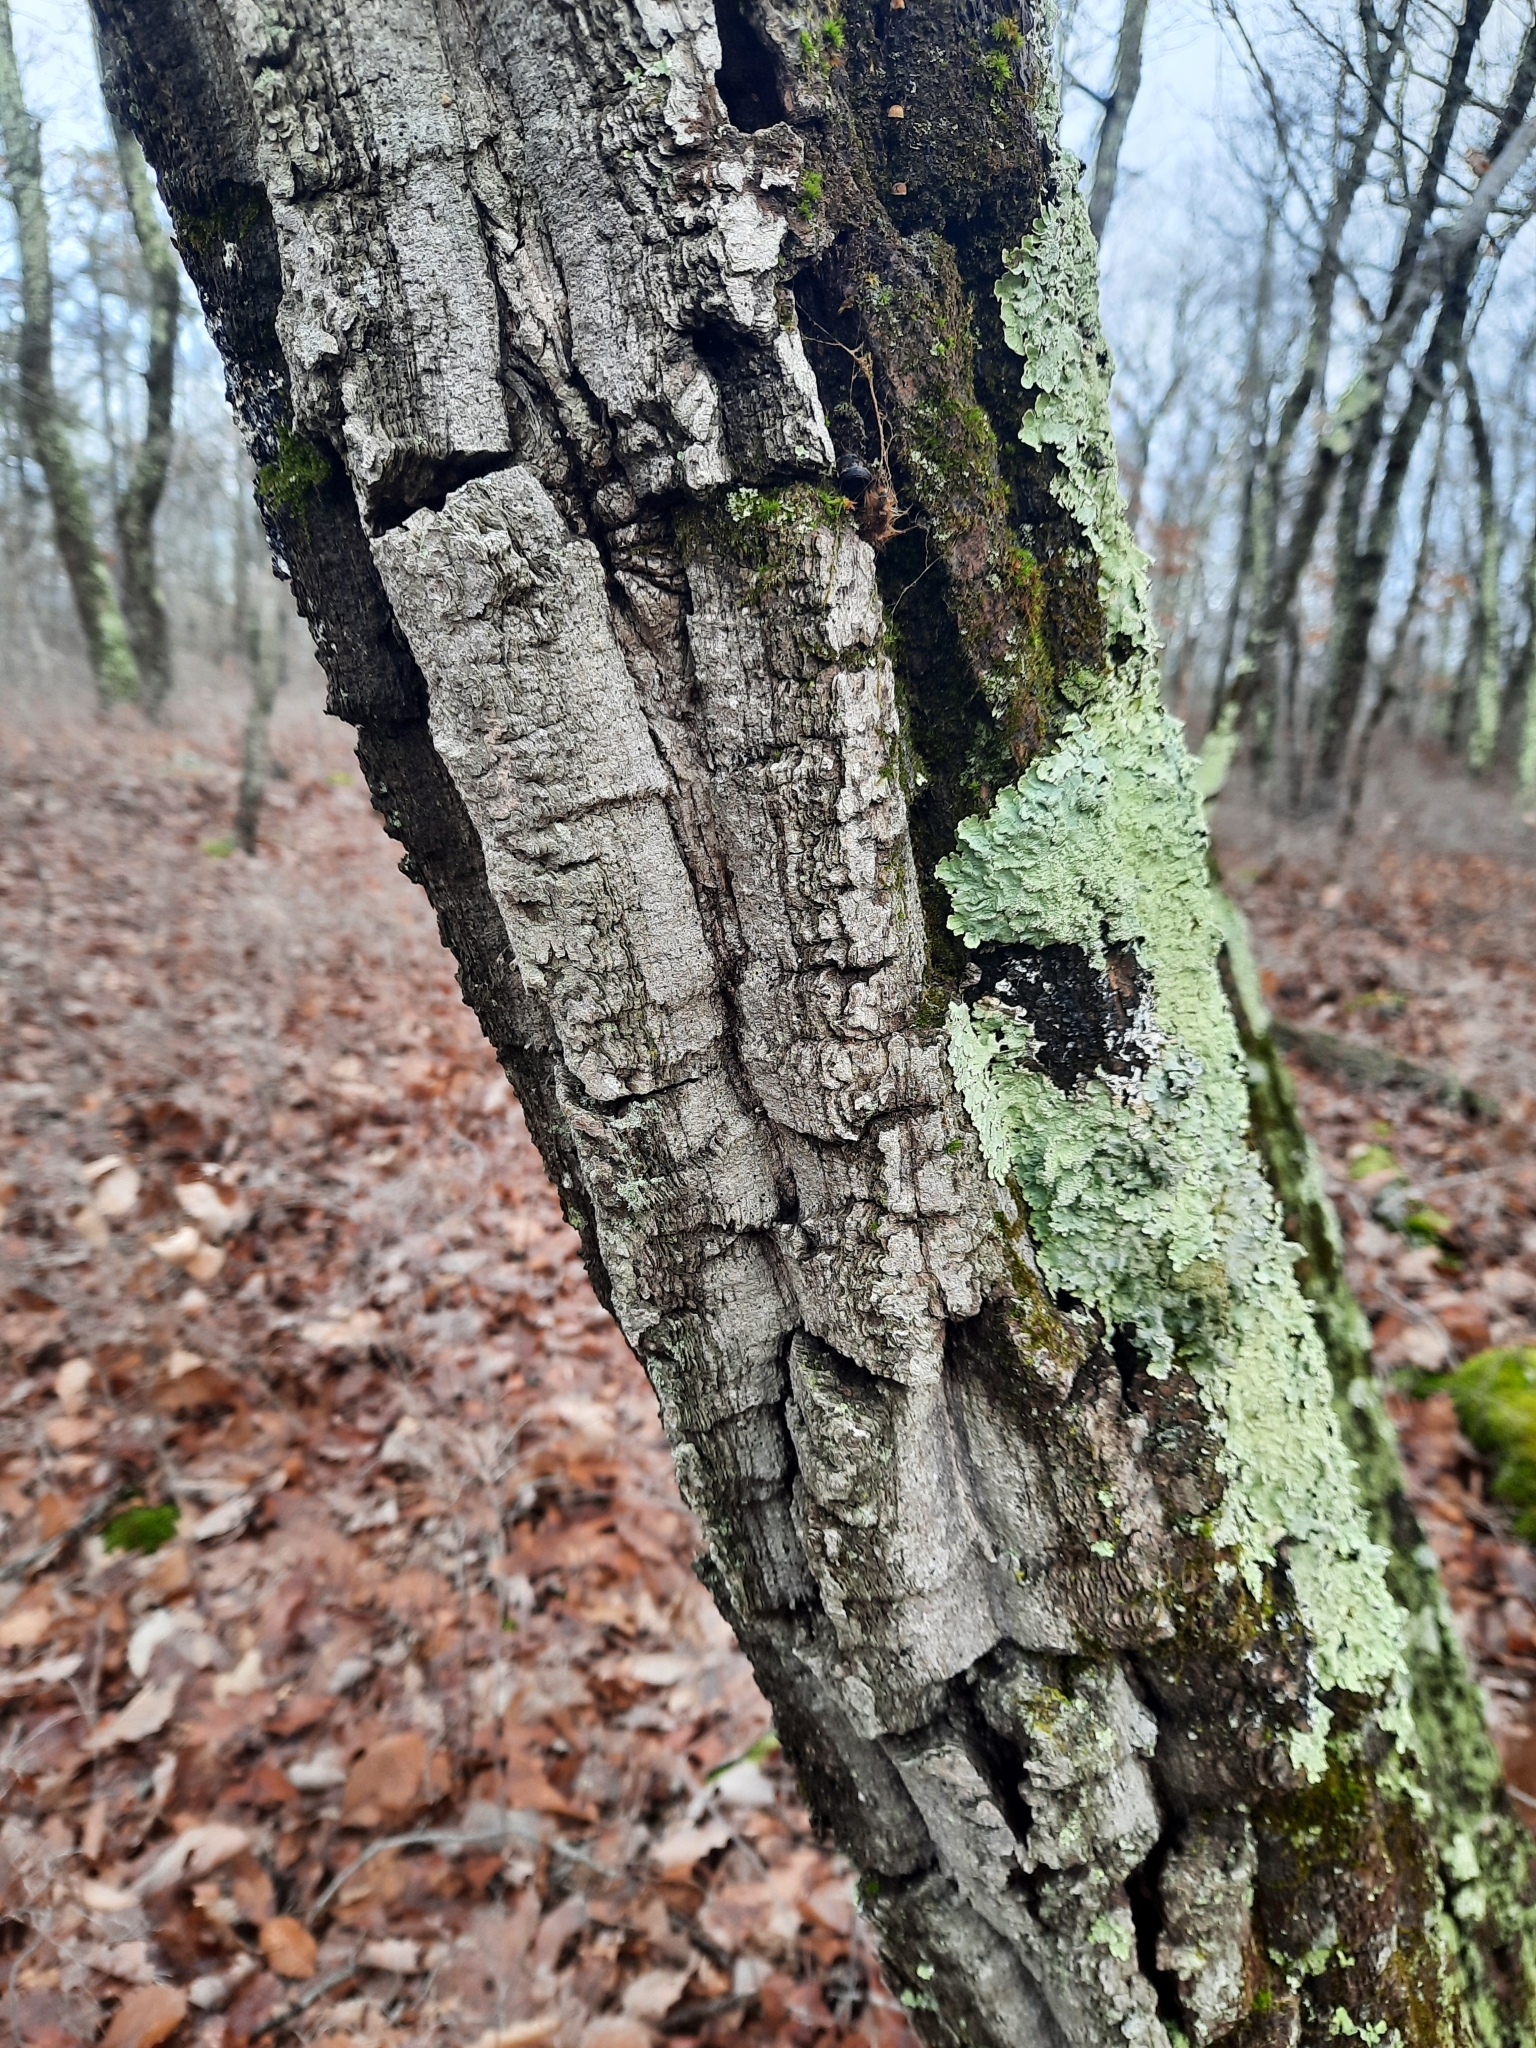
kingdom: Plantae
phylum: Tracheophyta
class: Magnoliopsida
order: Fagales
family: Fagaceae
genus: Quercus
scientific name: Quercus montana
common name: Chestnut oak
